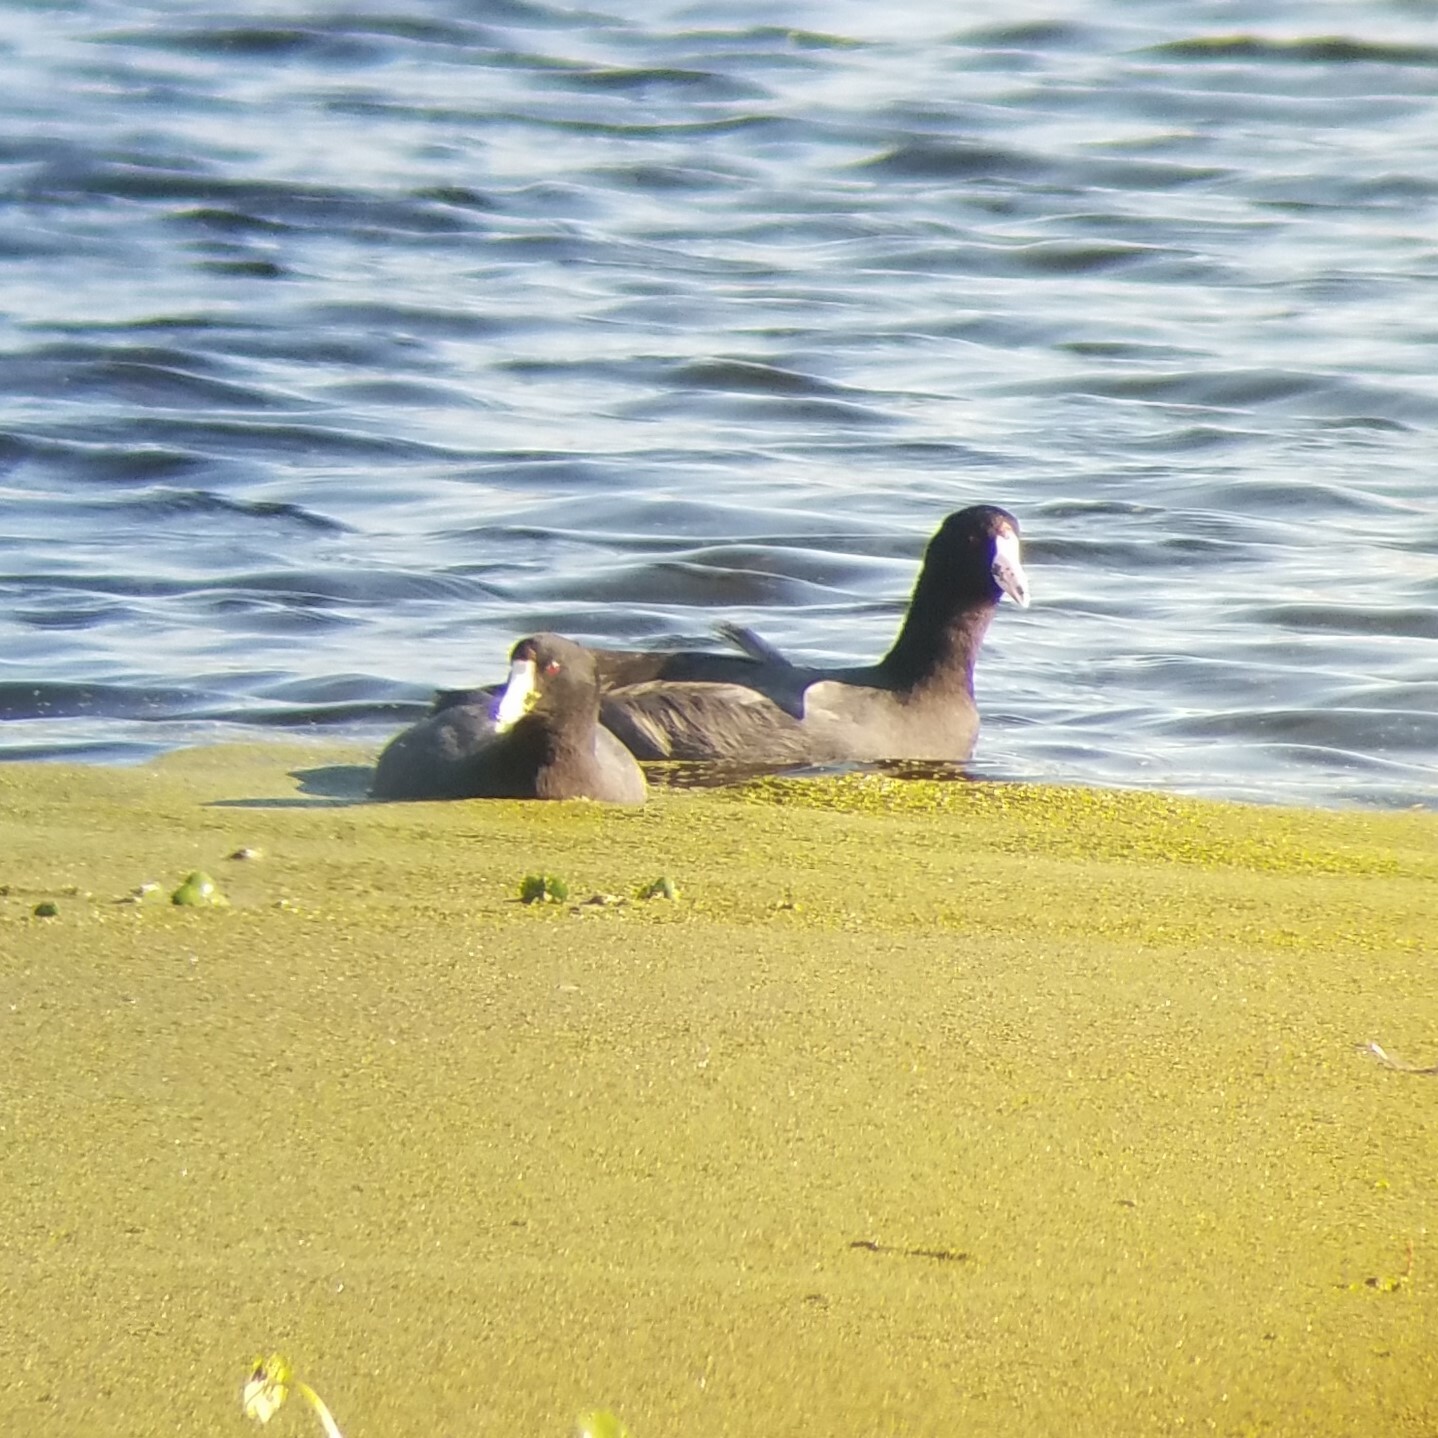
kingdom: Animalia
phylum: Chordata
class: Aves
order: Gruiformes
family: Rallidae
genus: Fulica
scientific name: Fulica americana
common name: American coot
